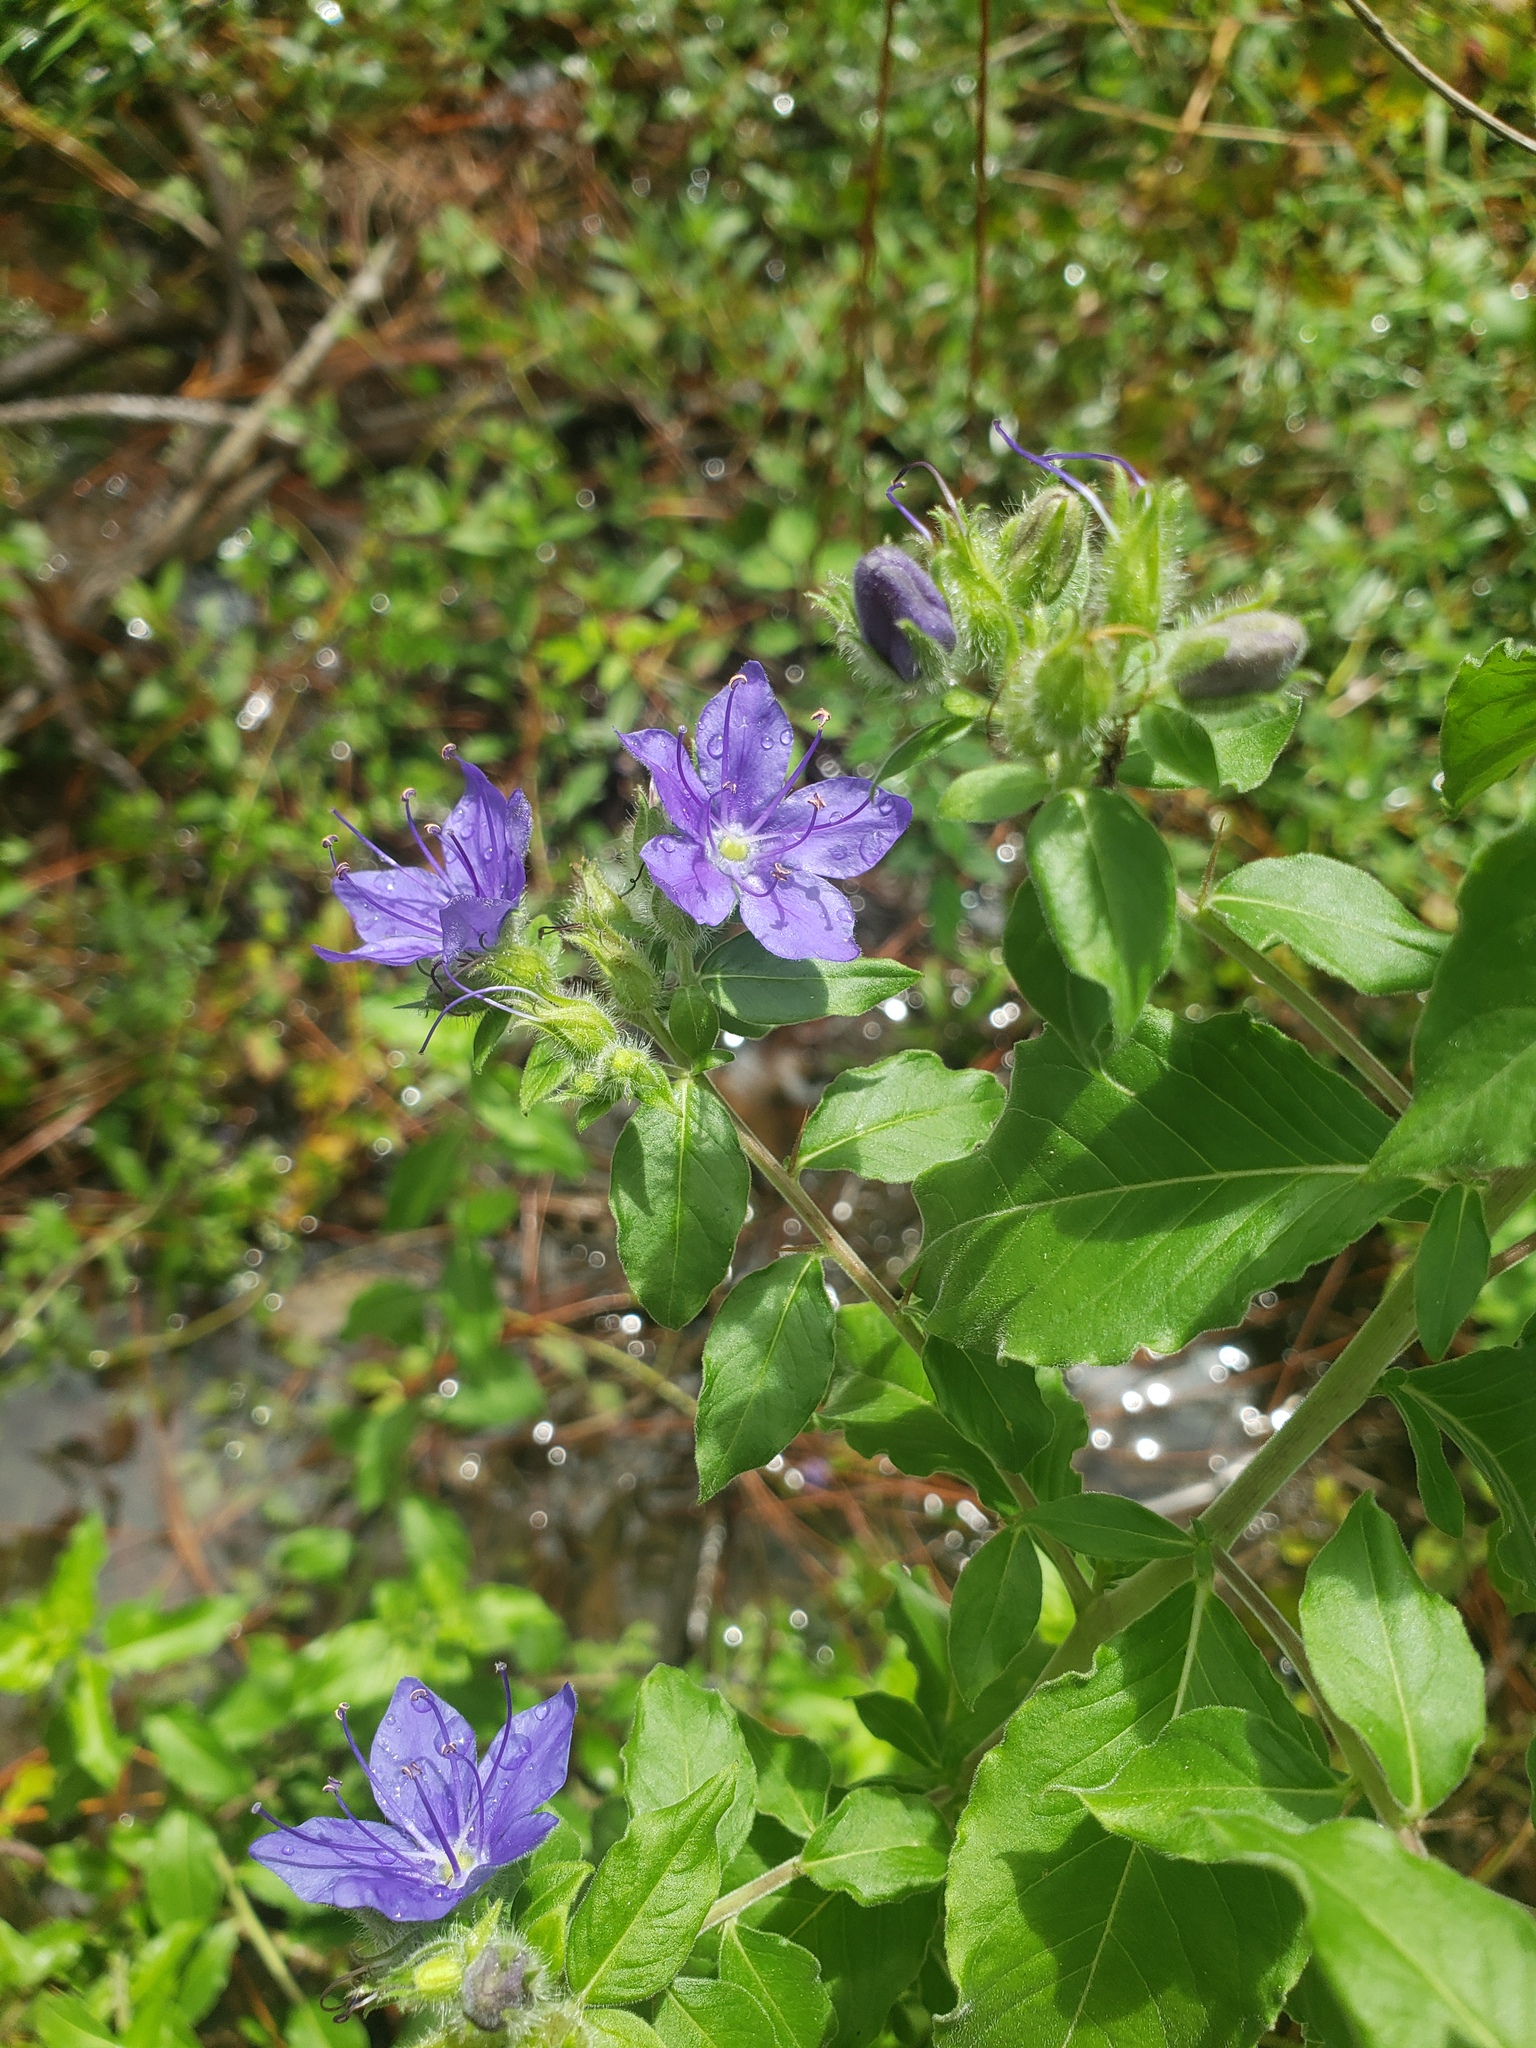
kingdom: Plantae
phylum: Tracheophyta
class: Magnoliopsida
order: Solanales
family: Hydroleaceae
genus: Hydrolea
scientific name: Hydrolea ovata
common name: Ovate false fiddleleaf
